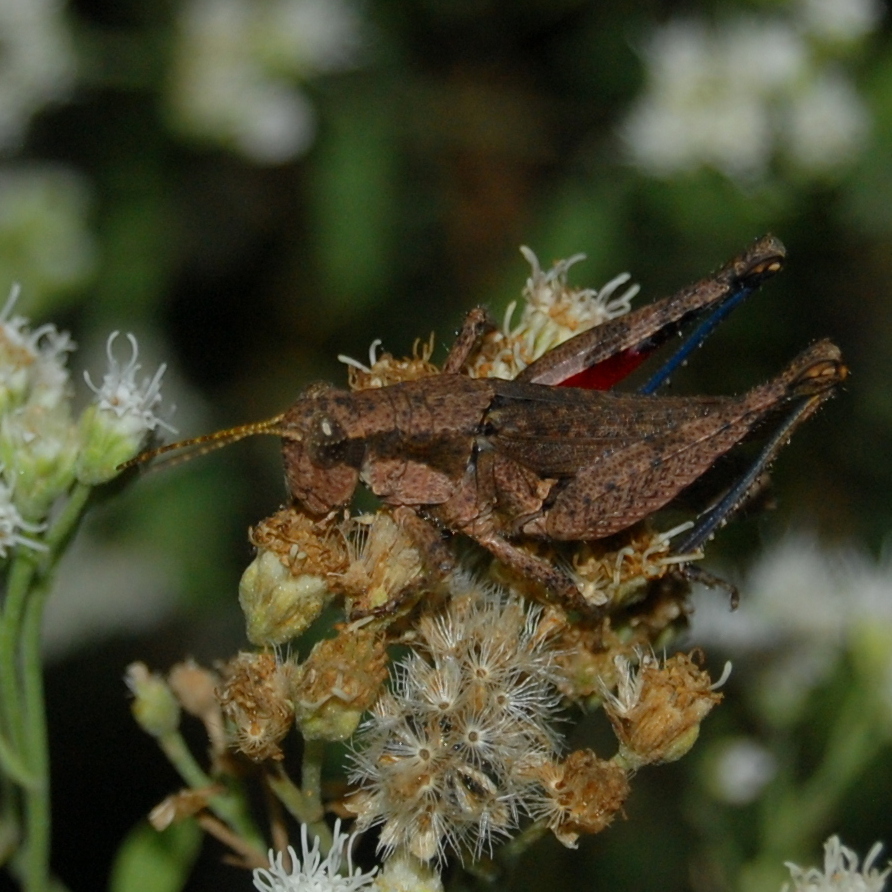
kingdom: Animalia
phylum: Arthropoda
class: Insecta
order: Orthoptera
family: Acrididae
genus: Ronderosia
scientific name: Ronderosia bergii
